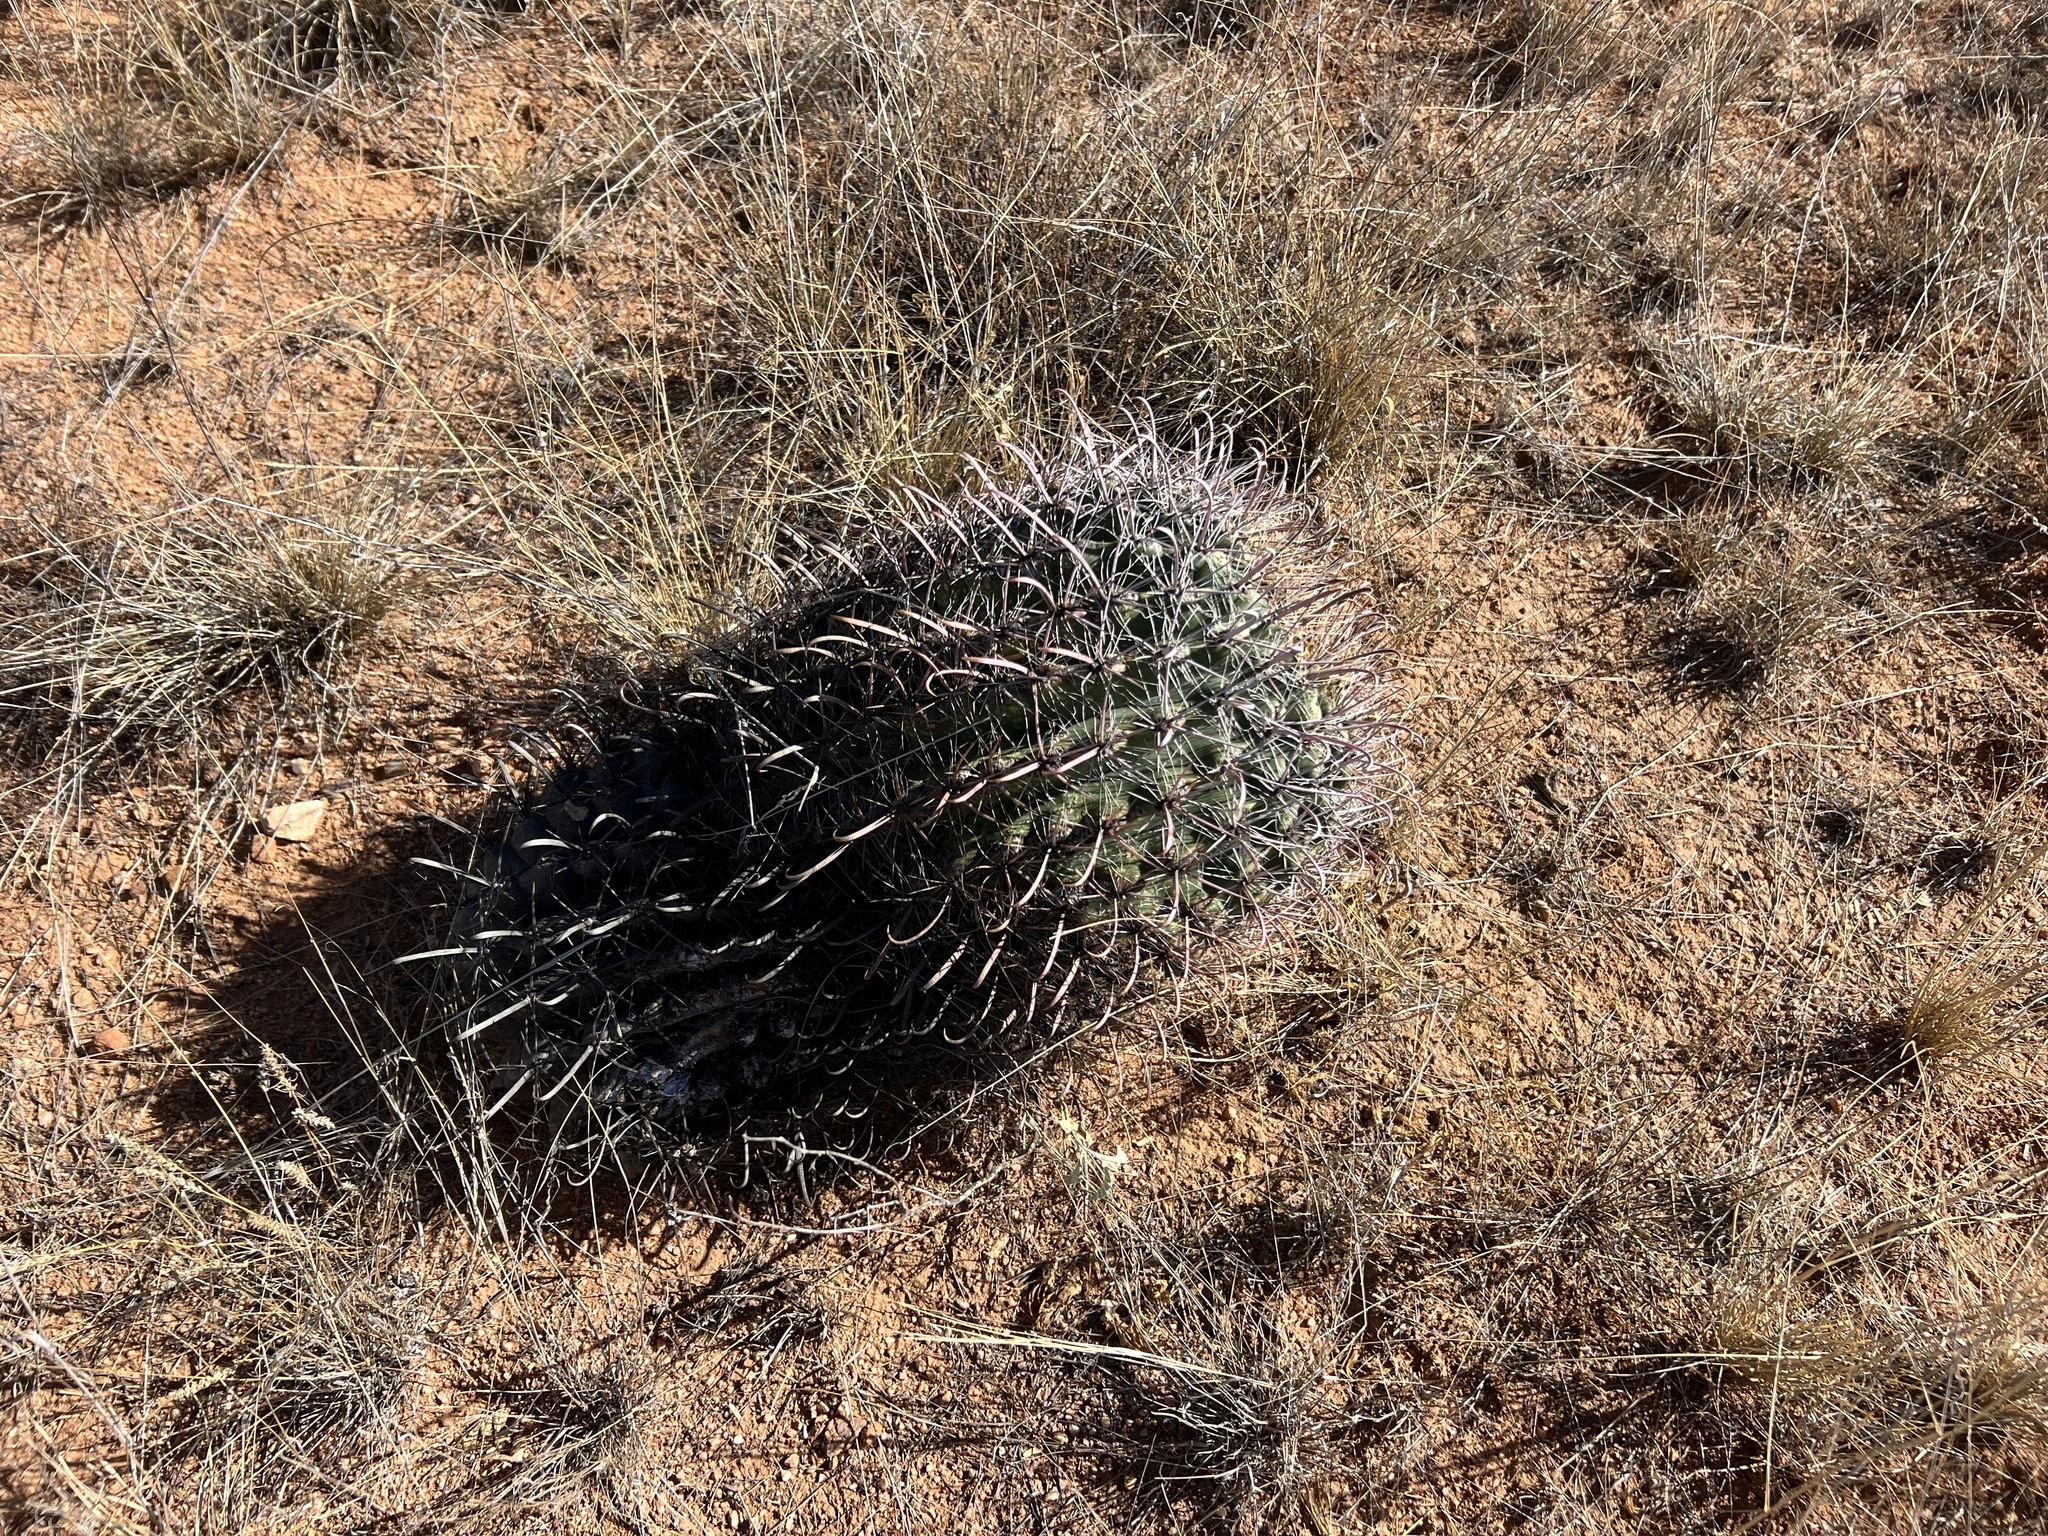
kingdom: Plantae
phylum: Tracheophyta
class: Magnoliopsida
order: Caryophyllales
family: Cactaceae
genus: Ferocactus
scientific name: Ferocactus wislizeni
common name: Candy barrel cactus
